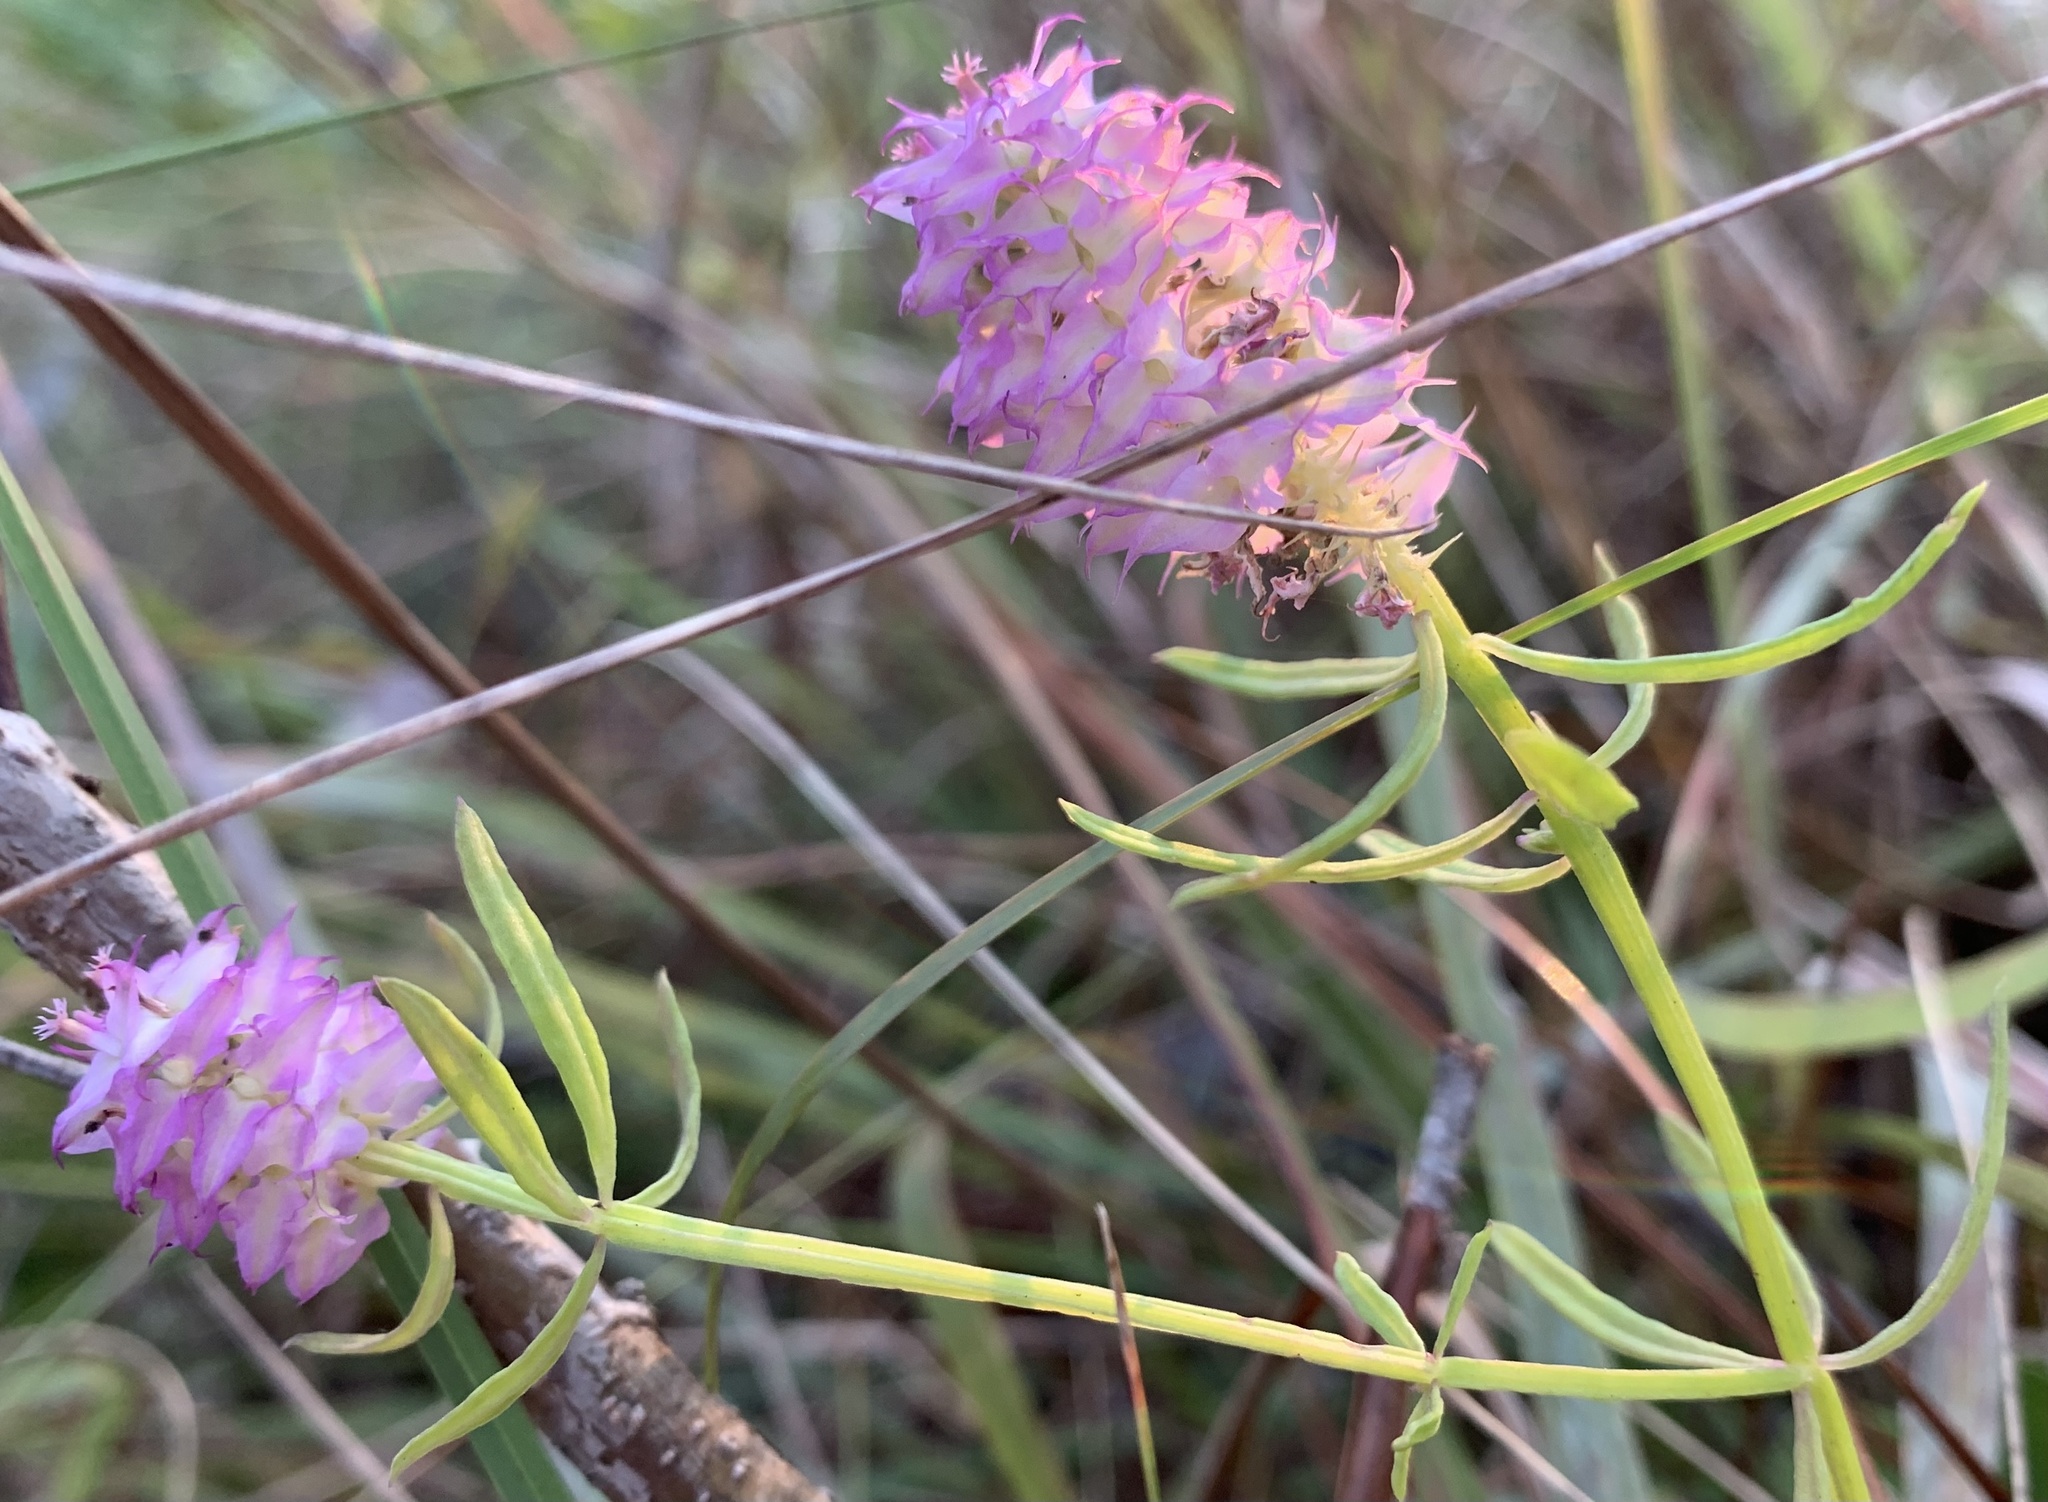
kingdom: Plantae
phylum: Tracheophyta
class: Magnoliopsida
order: Fabales
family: Polygalaceae
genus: Polygala
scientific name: Polygala cruciata
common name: Drumheads
